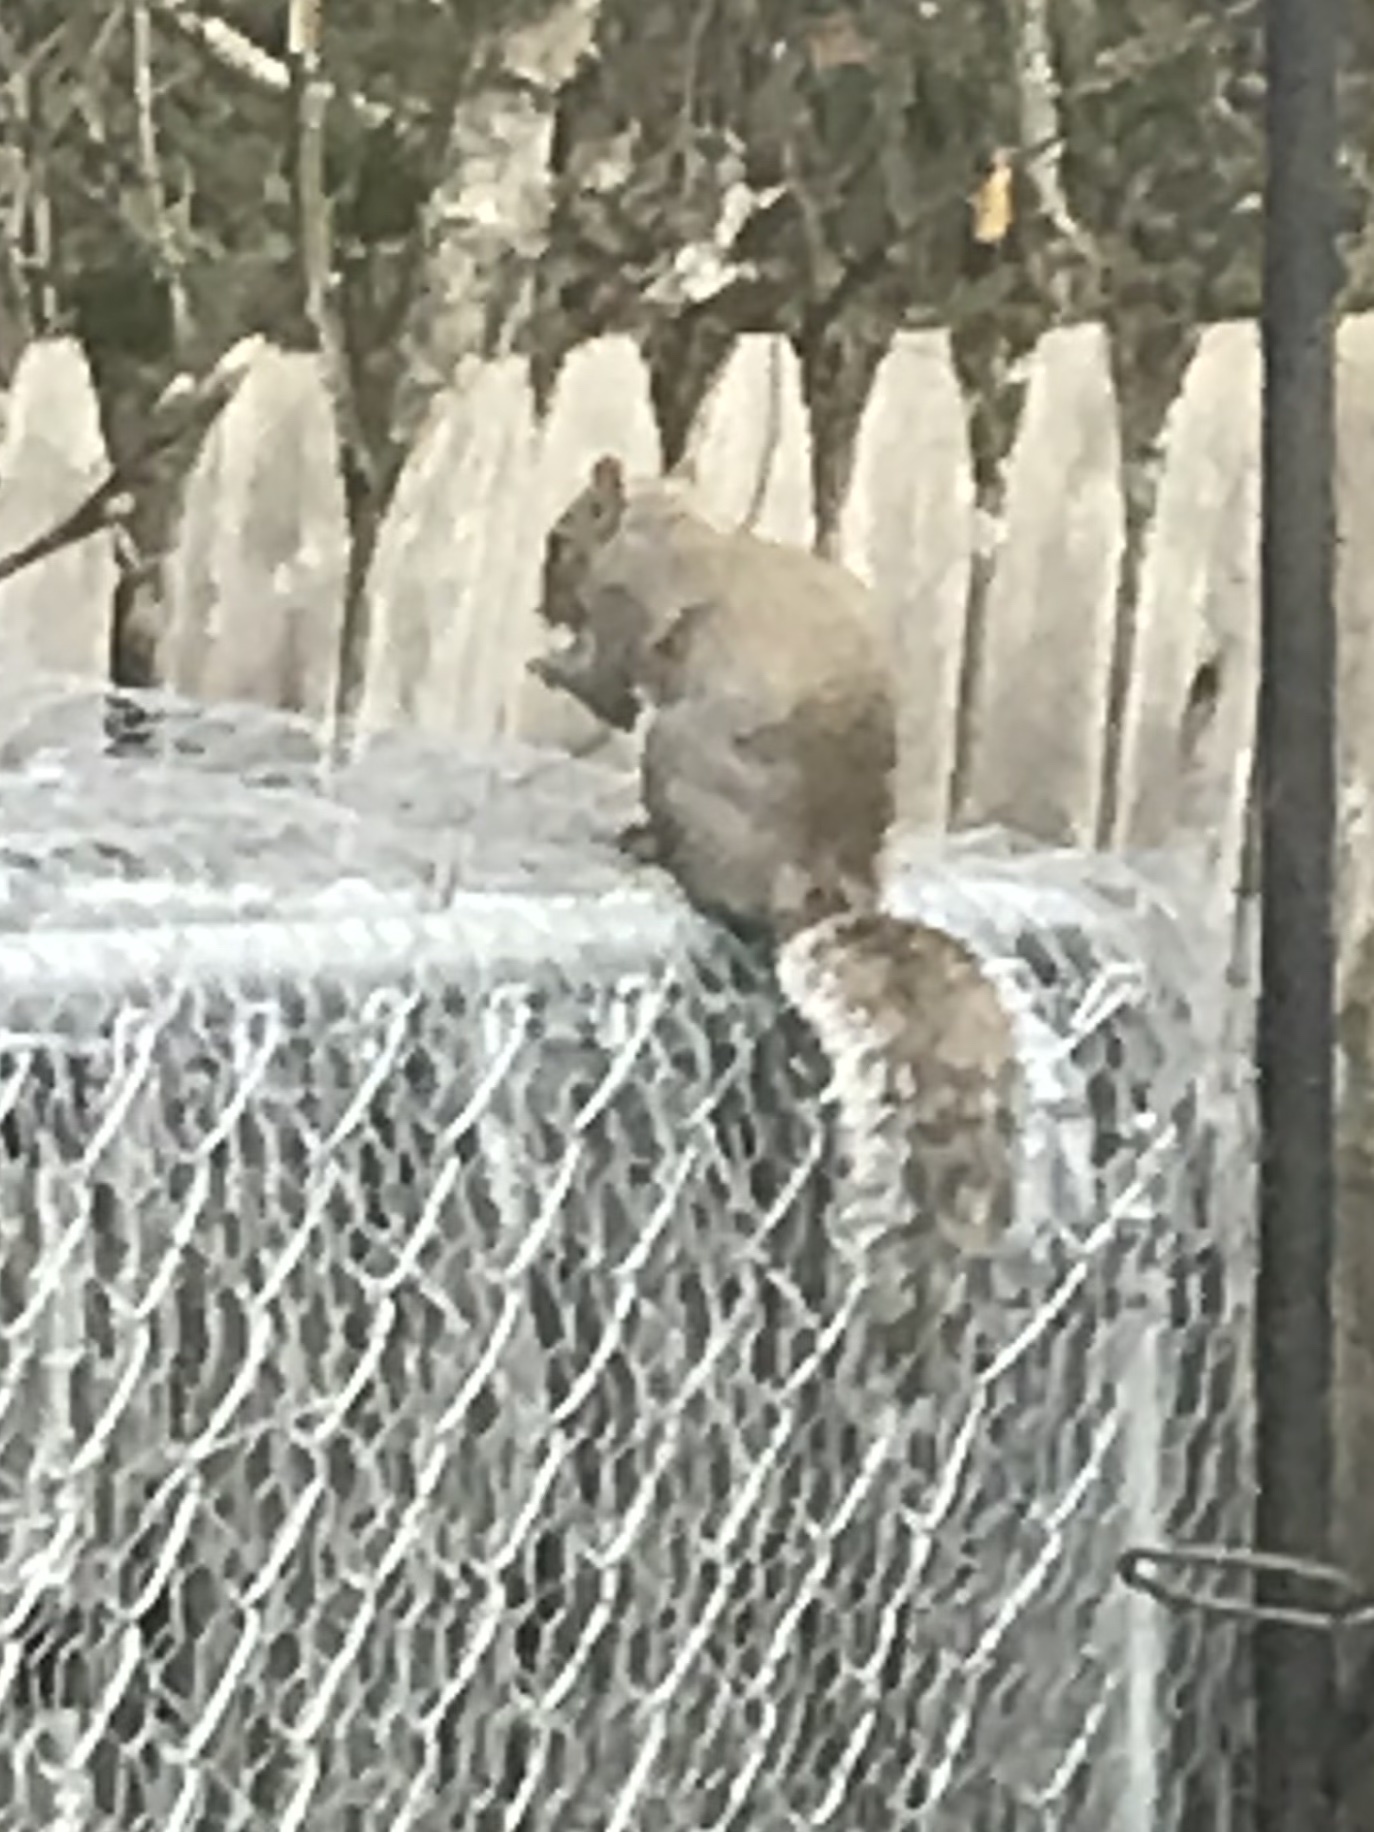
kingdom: Animalia
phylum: Chordata
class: Mammalia
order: Rodentia
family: Sciuridae
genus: Sciurus
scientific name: Sciurus carolinensis
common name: Eastern gray squirrel
